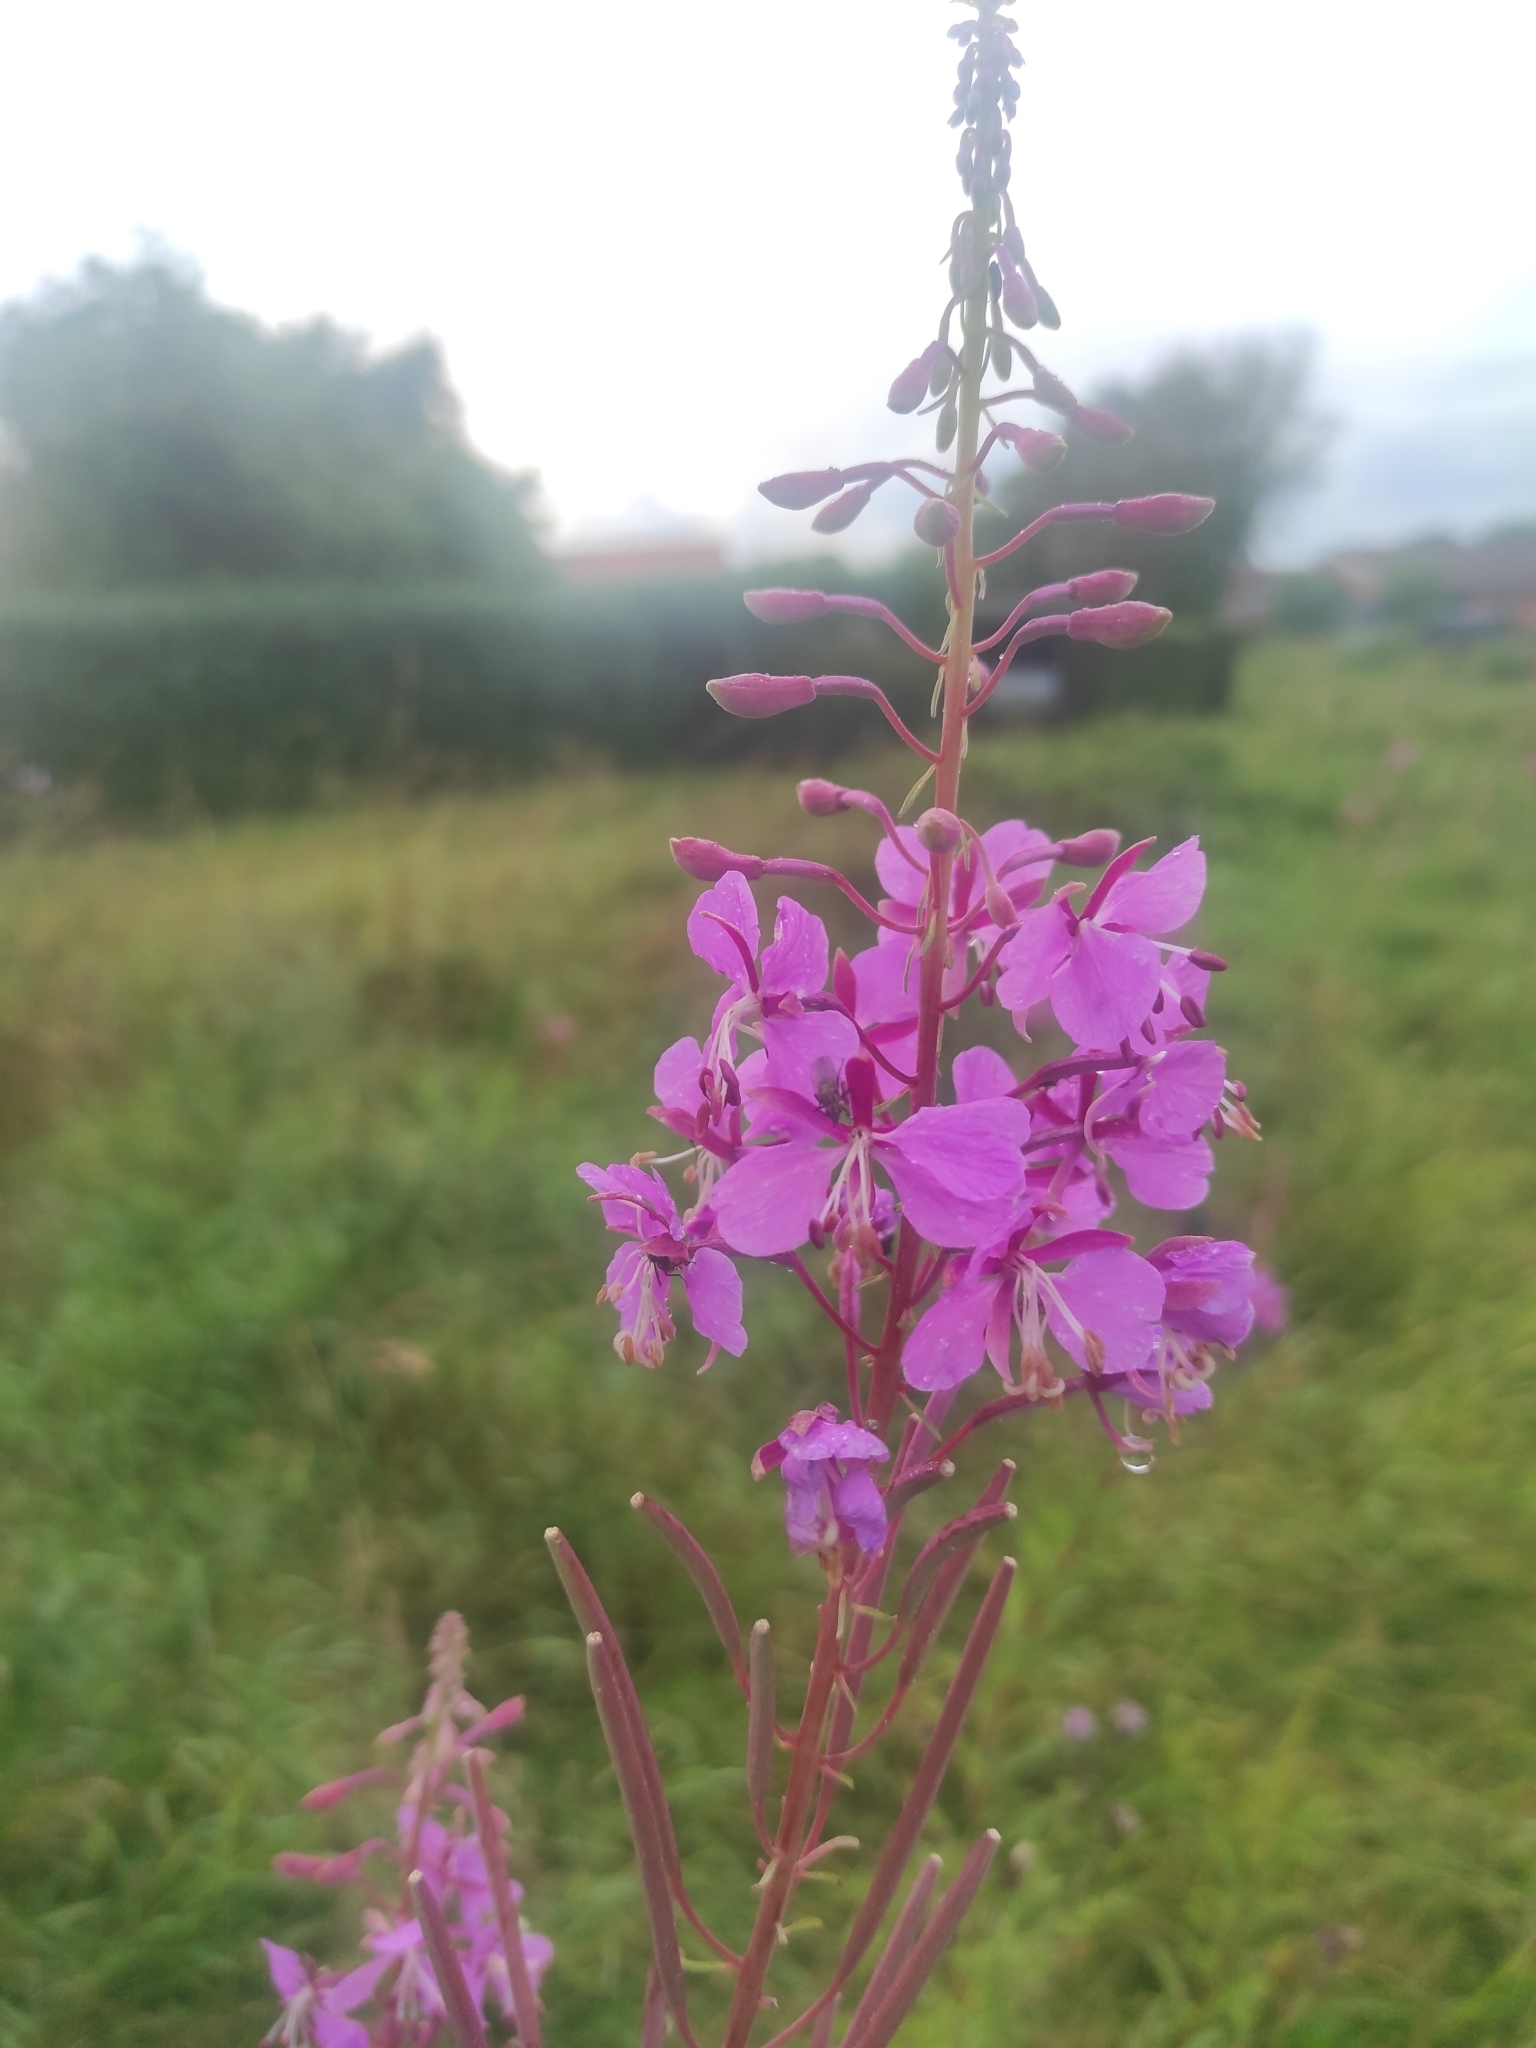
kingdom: Plantae
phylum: Tracheophyta
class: Magnoliopsida
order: Myrtales
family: Onagraceae
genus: Chamaenerion
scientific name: Chamaenerion angustifolium
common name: Fireweed
